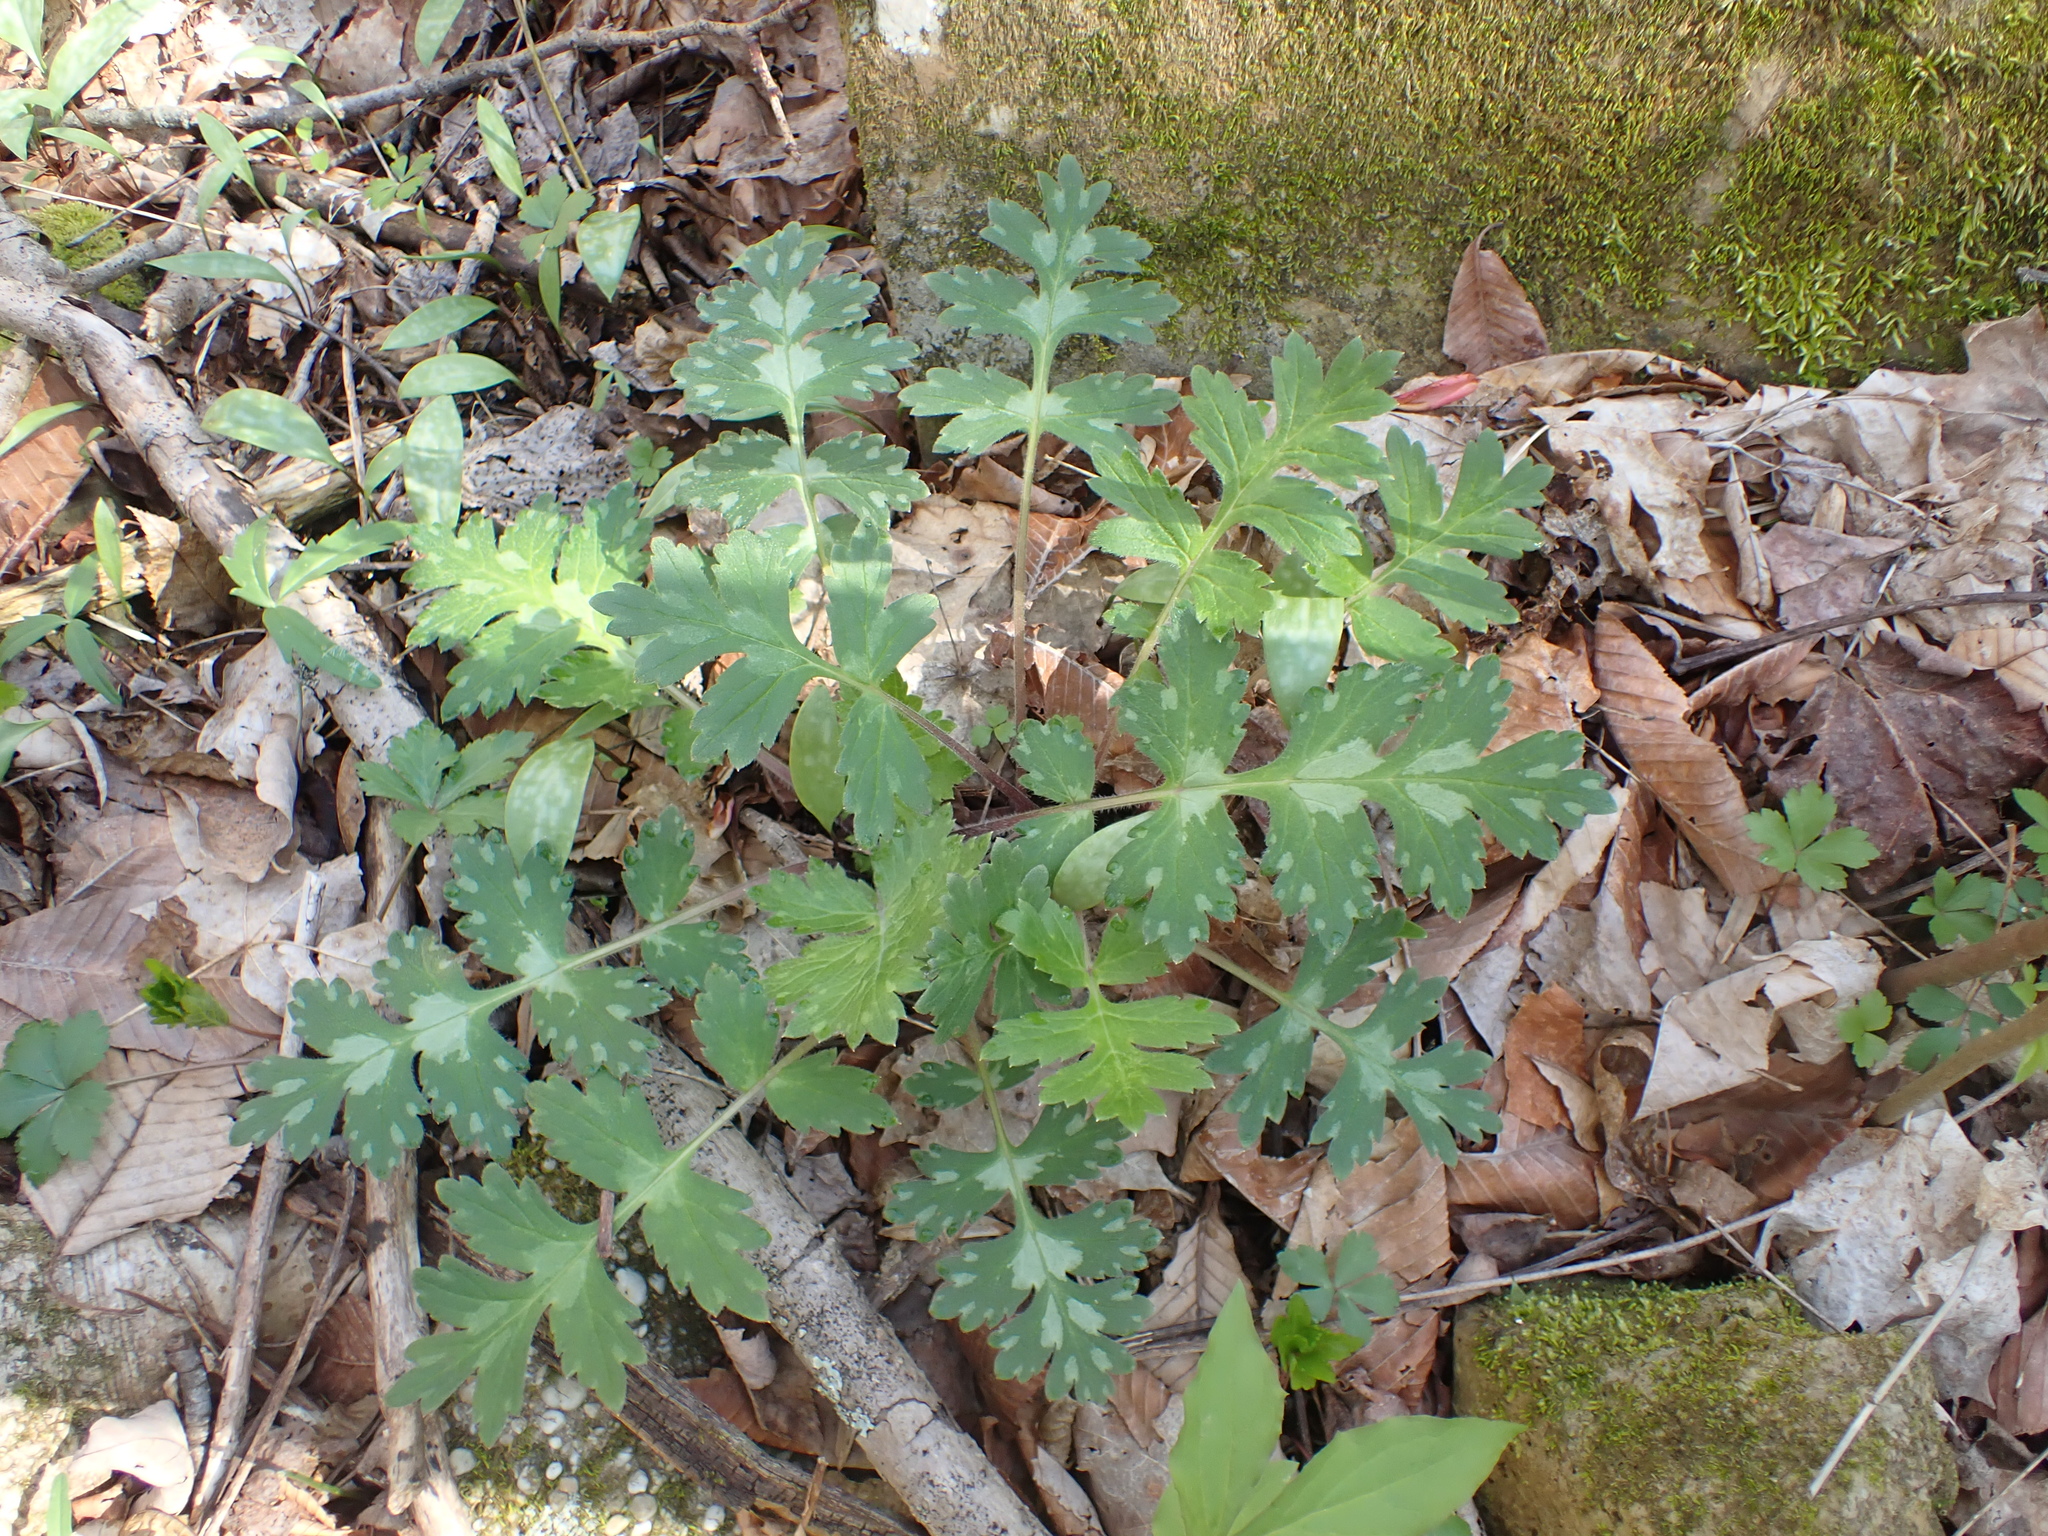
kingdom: Plantae
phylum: Tracheophyta
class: Magnoliopsida
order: Boraginales
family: Hydrophyllaceae
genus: Hydrophyllum
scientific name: Hydrophyllum macrophyllum
